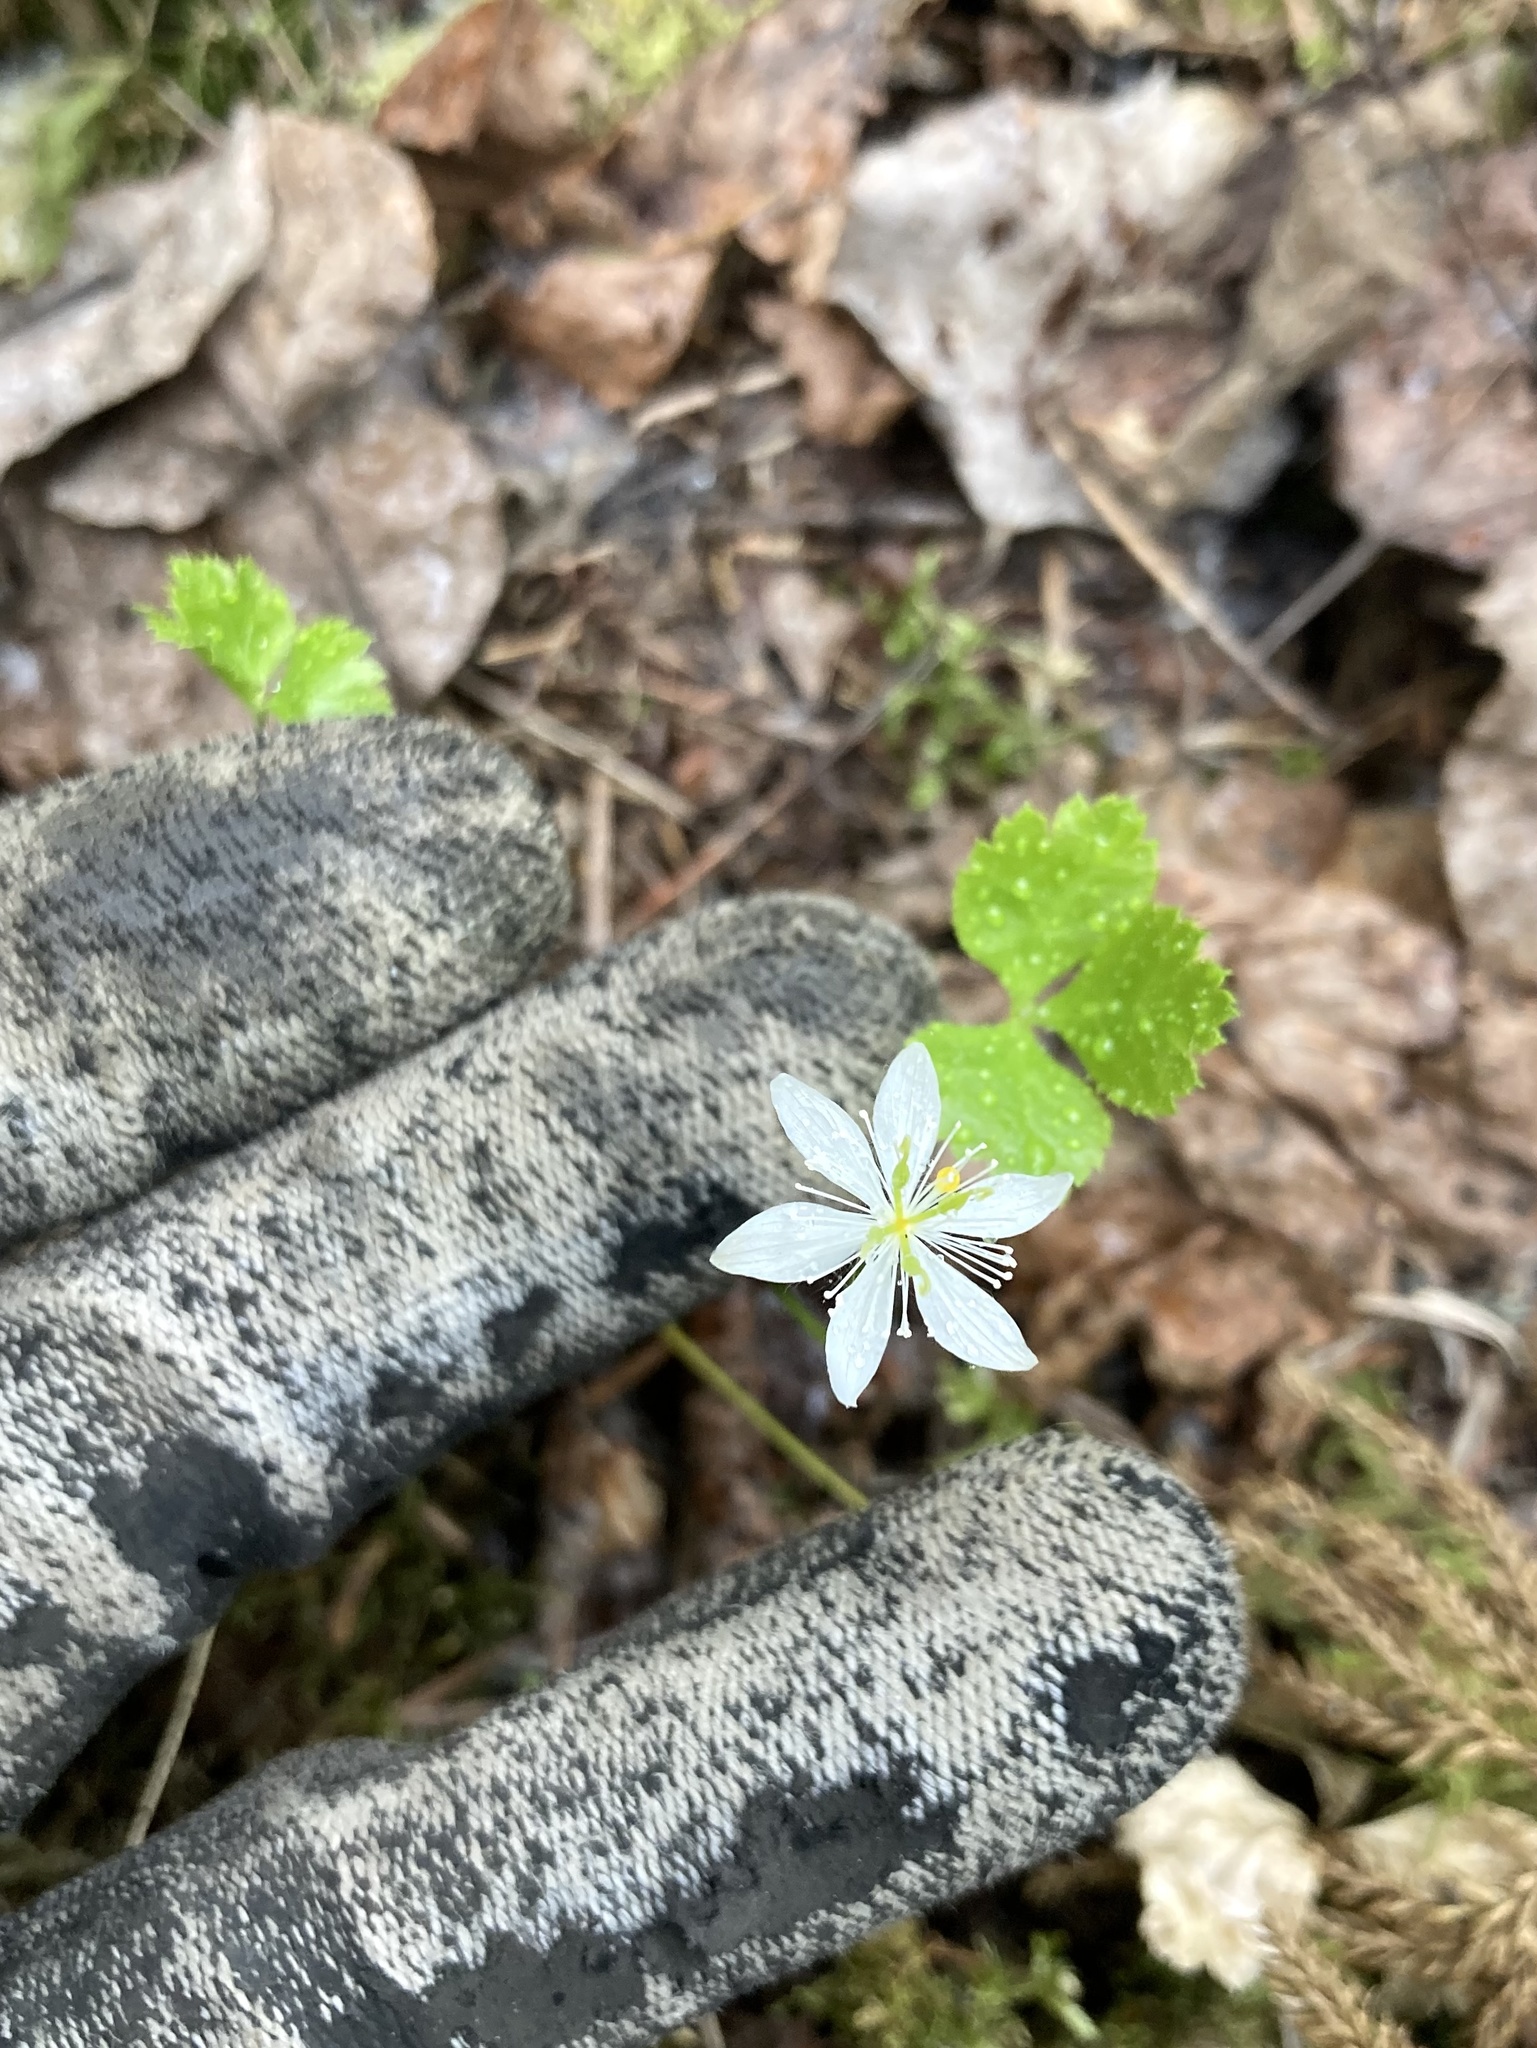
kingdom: Plantae
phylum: Tracheophyta
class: Magnoliopsida
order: Ranunculales
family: Ranunculaceae
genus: Coptis
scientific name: Coptis trifolia
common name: Canker-root
